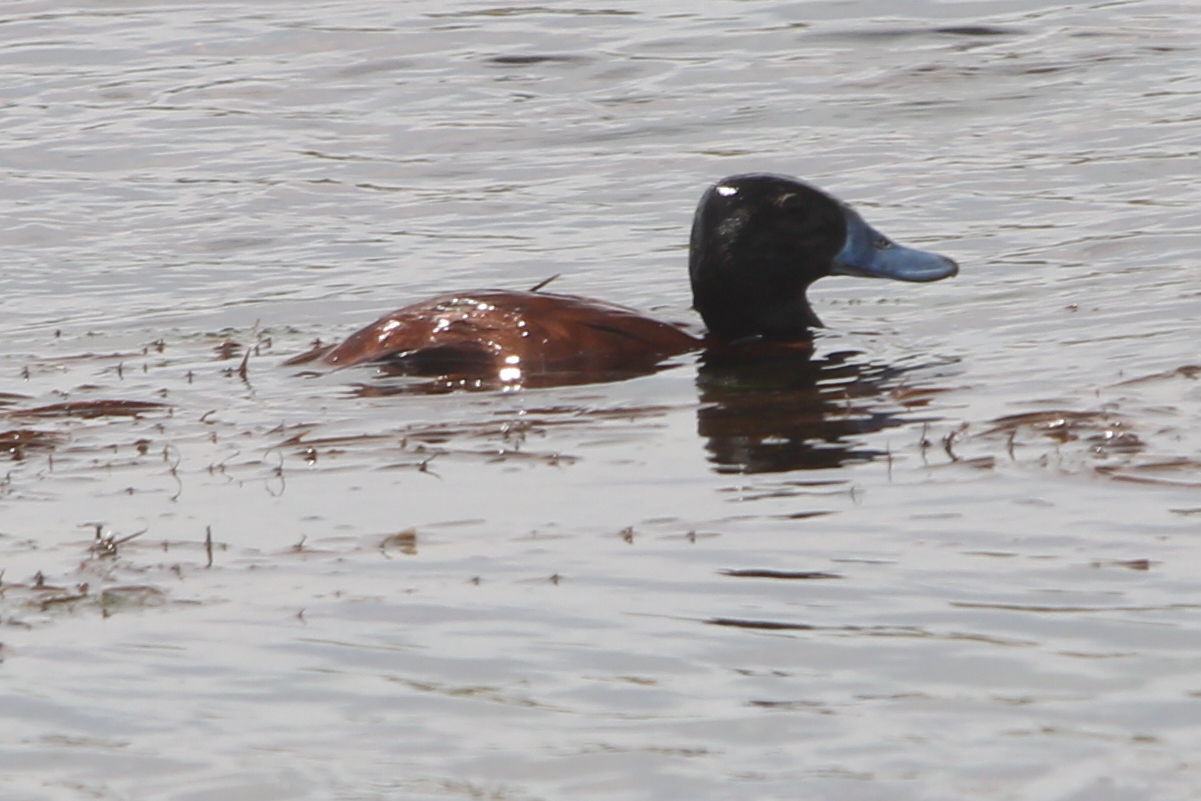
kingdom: Animalia
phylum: Chordata
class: Aves
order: Anseriformes
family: Anatidae
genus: Oxyura
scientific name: Oxyura vittata
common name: Lake duck
